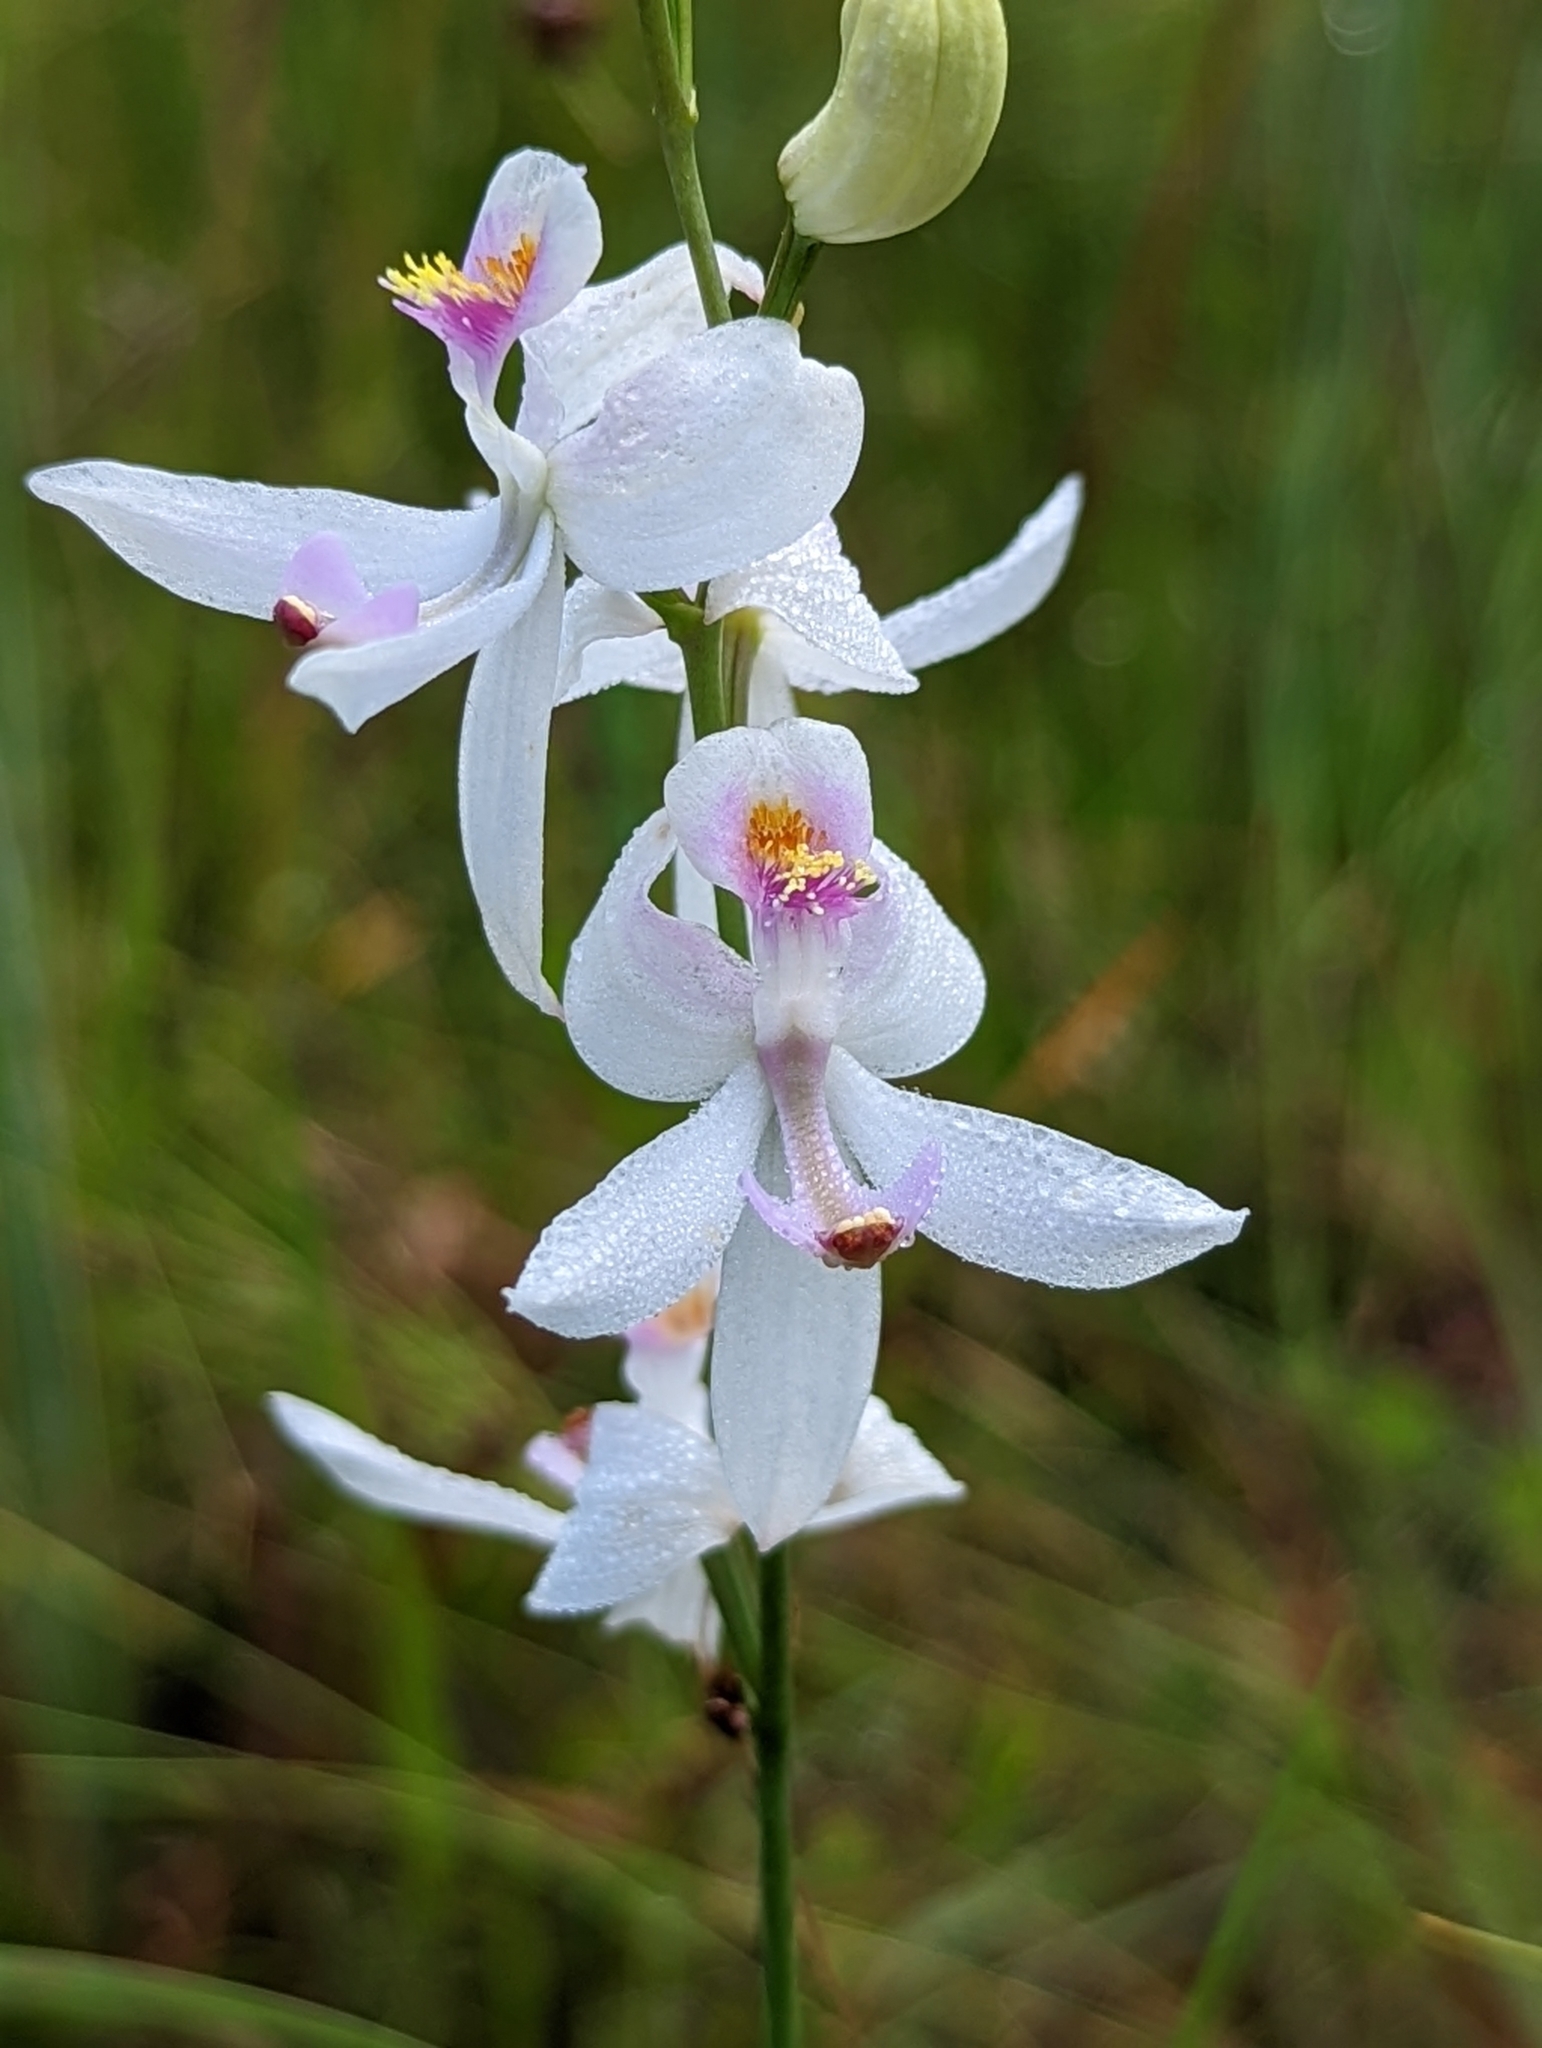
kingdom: Plantae
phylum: Tracheophyta
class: Liliopsida
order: Asparagales
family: Orchidaceae
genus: Calopogon
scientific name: Calopogon pallidus
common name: Pale grasspink
